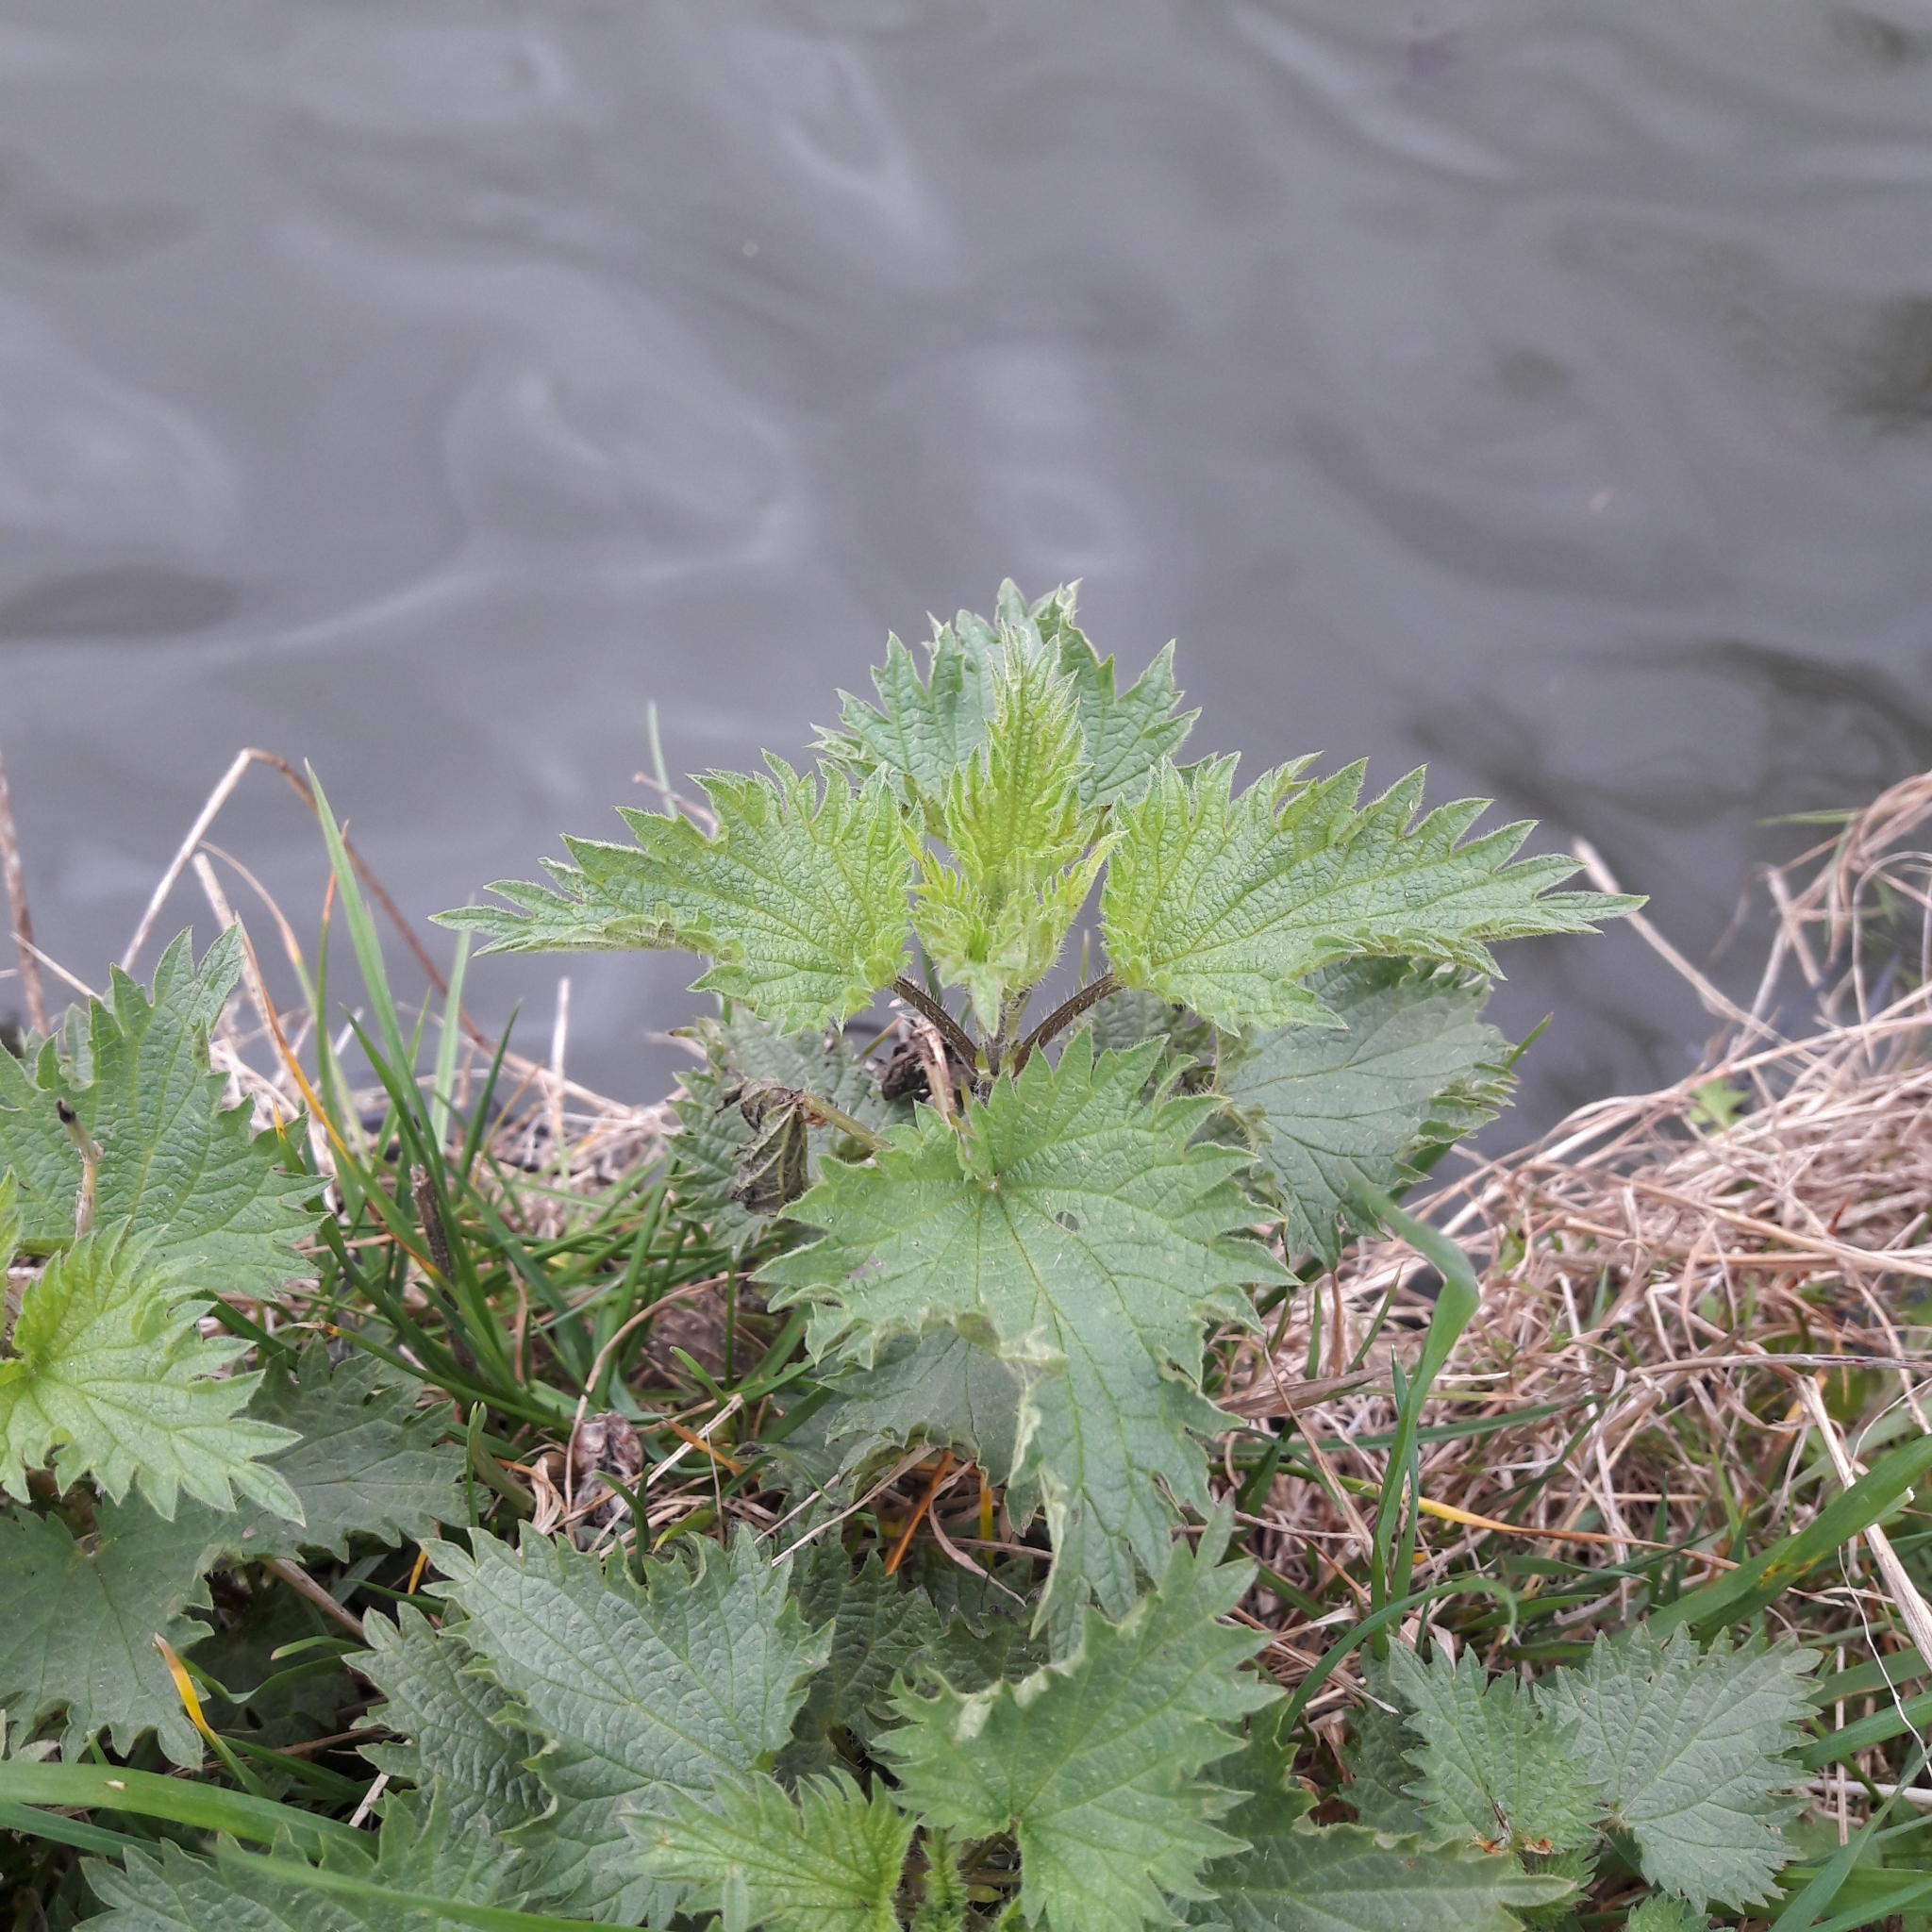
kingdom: Plantae
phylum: Tracheophyta
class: Magnoliopsida
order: Rosales
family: Urticaceae
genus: Urtica
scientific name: Urtica dioica
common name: Common nettle
